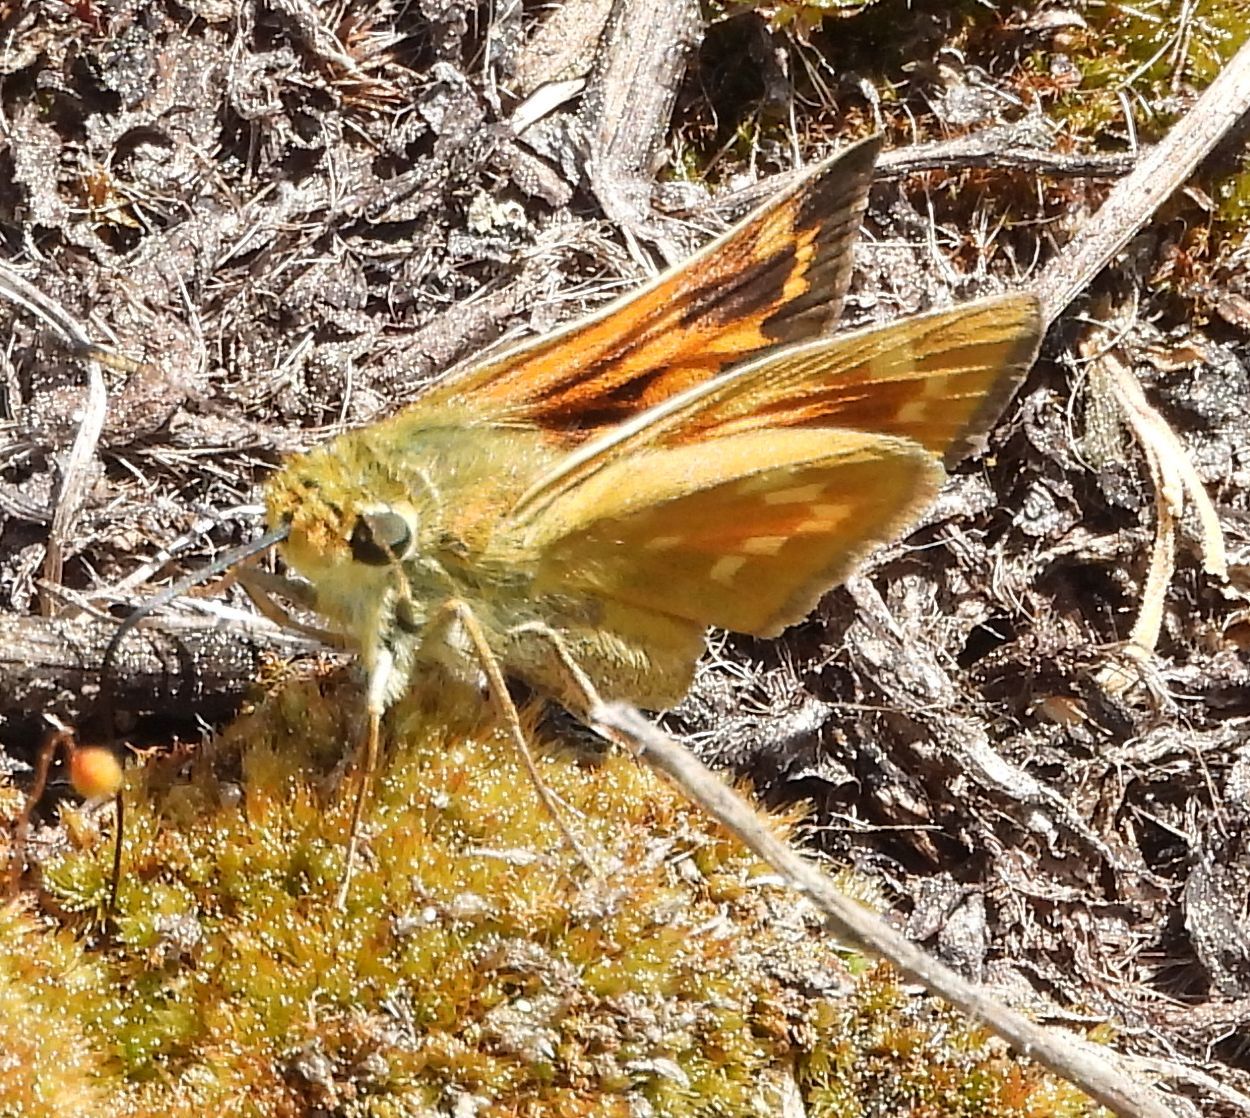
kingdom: Animalia
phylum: Arthropoda
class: Insecta
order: Lepidoptera
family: Hesperiidae
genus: Hesperia
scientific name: Hesperia sassacus
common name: Indian skipper
